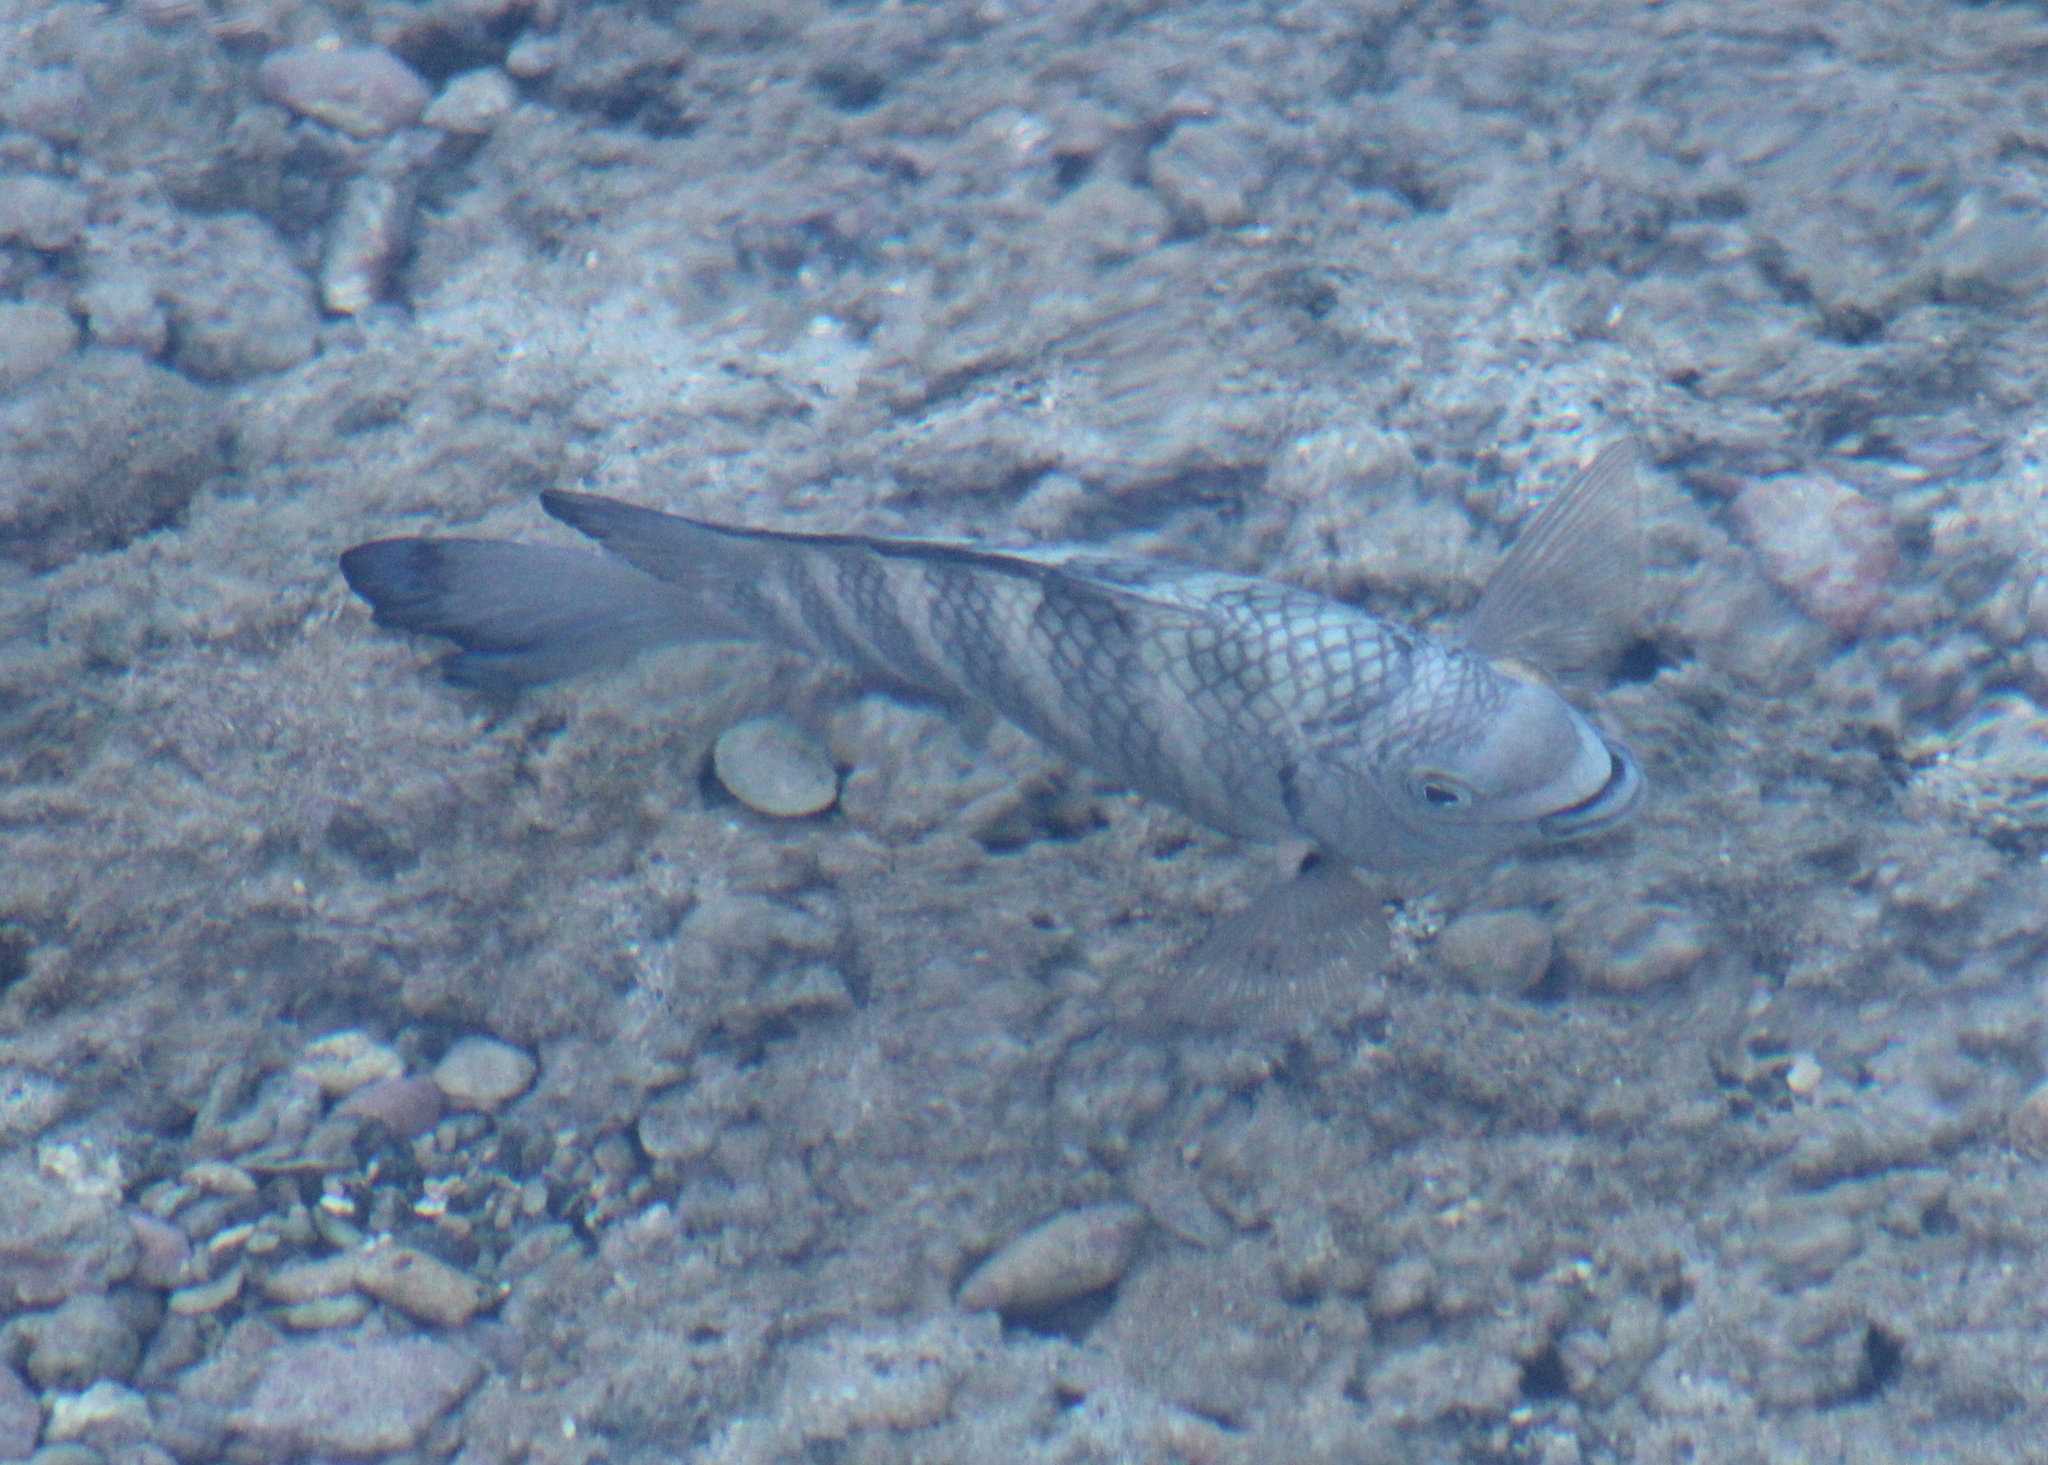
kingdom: Animalia
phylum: Chordata
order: Perciformes
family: Pomacentridae
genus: Abudefduf
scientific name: Abudefduf septemfasciatus
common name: Banded sergeant
